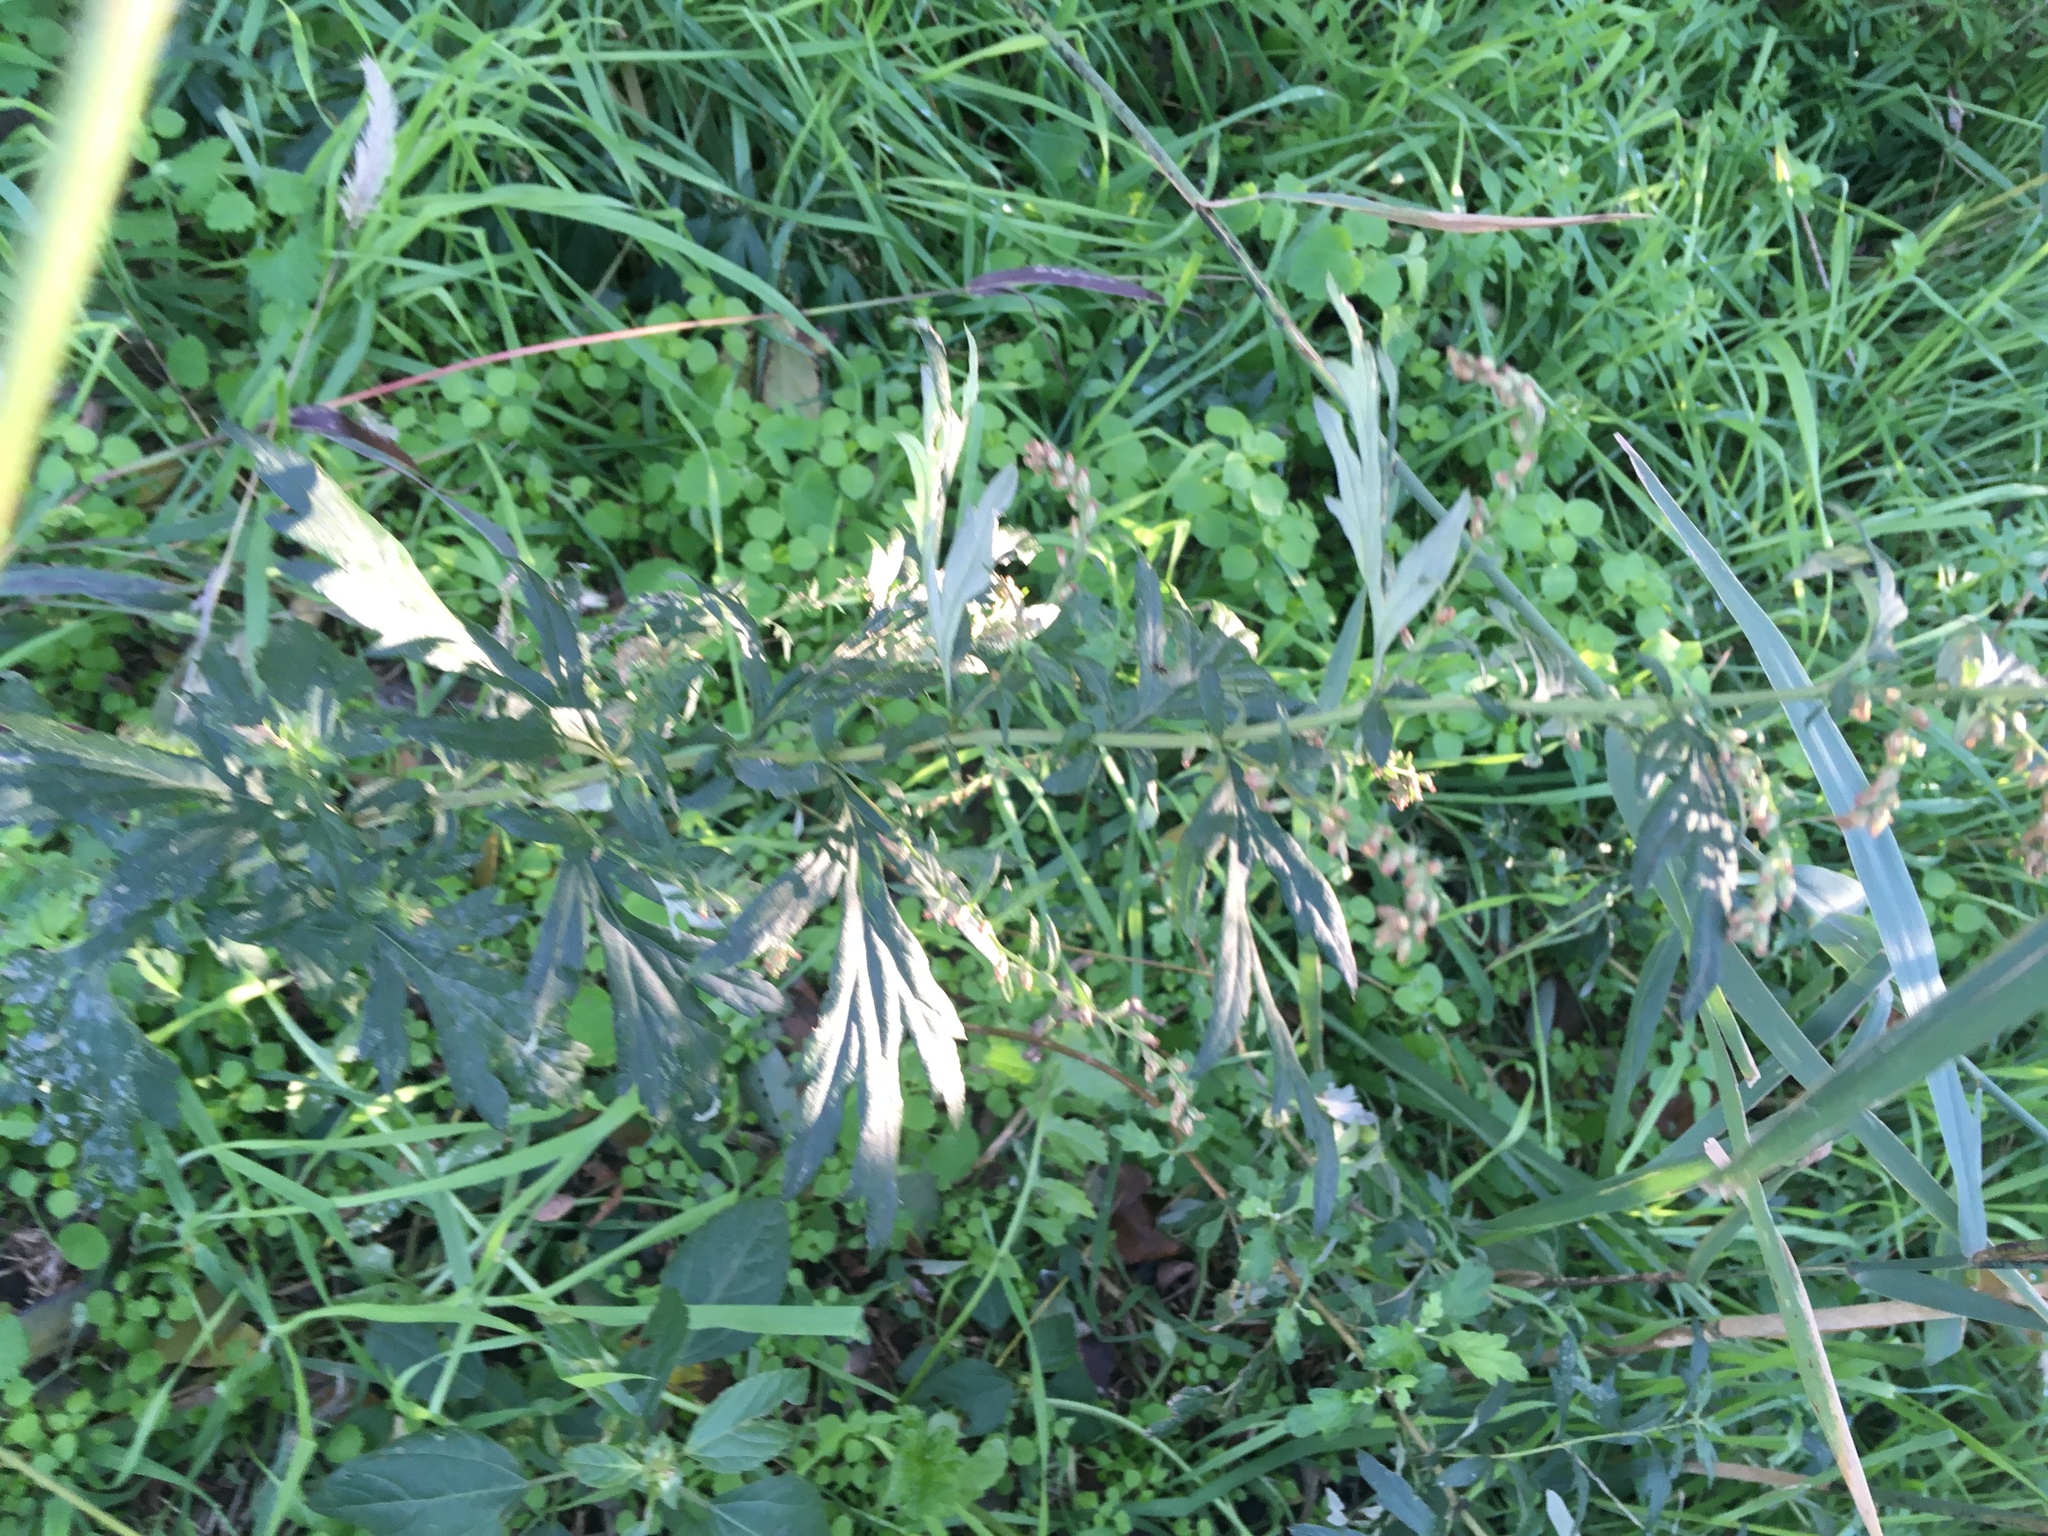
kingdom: Plantae
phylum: Tracheophyta
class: Magnoliopsida
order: Asterales
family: Asteraceae
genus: Artemisia
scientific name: Artemisia vulgaris
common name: Mugwort
